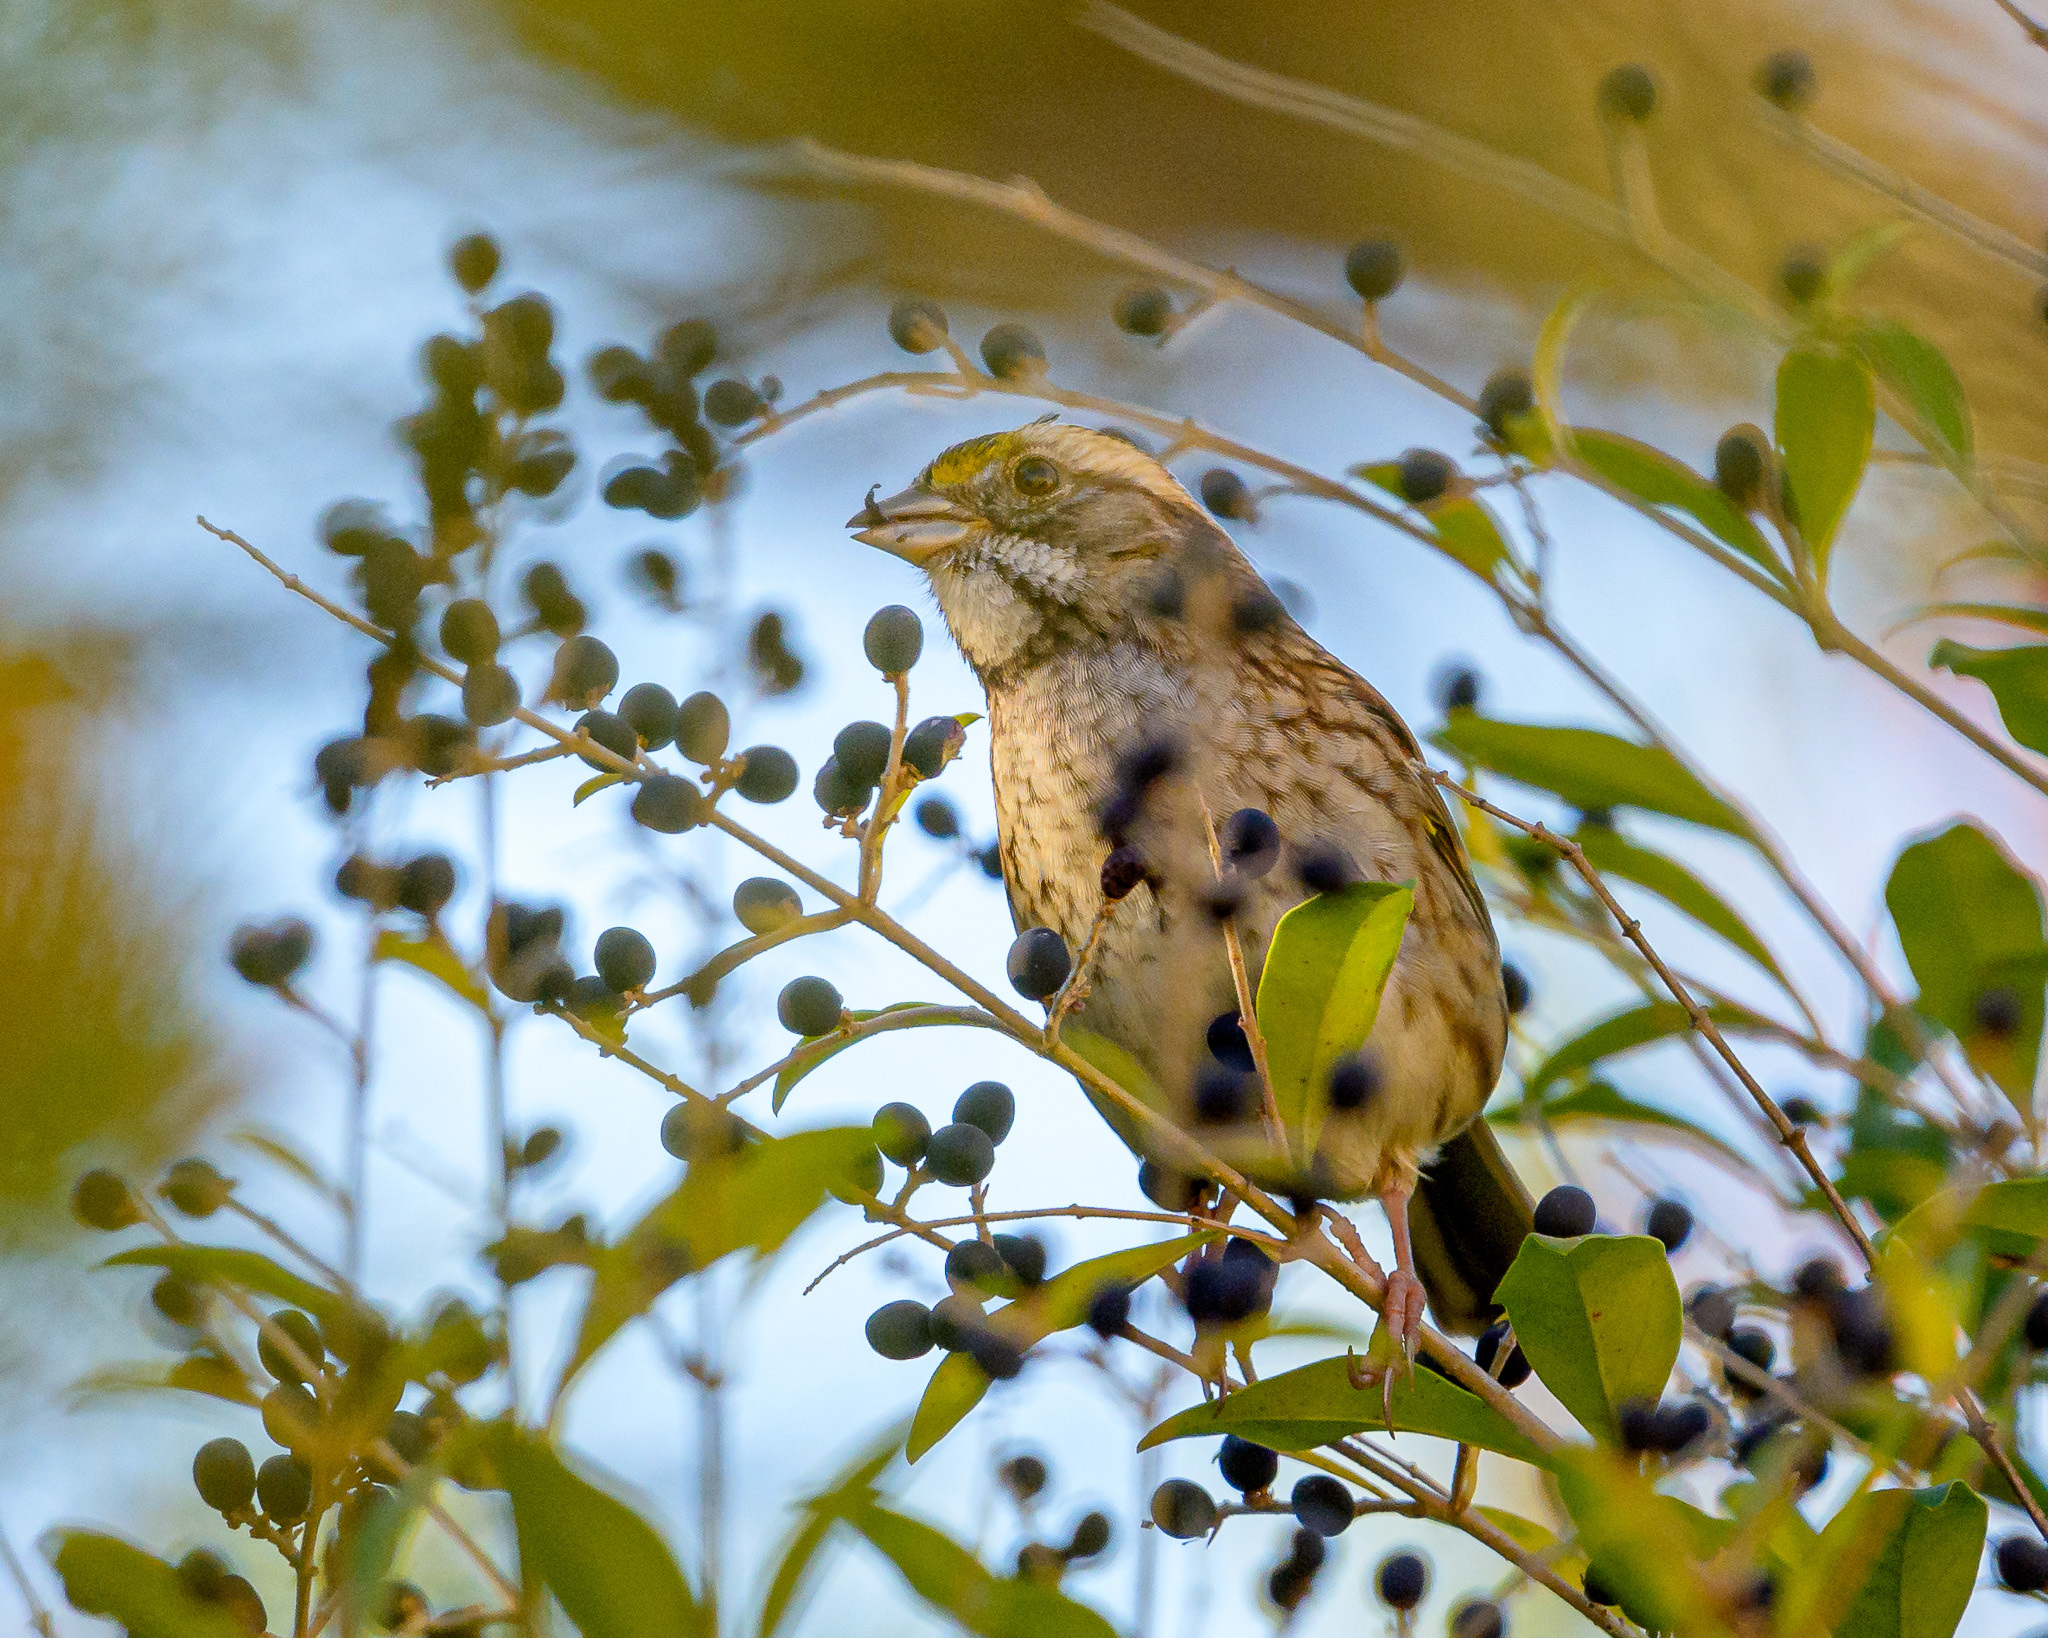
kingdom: Animalia
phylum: Chordata
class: Aves
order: Passeriformes
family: Passerellidae
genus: Zonotrichia
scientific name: Zonotrichia albicollis
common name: White-throated sparrow
